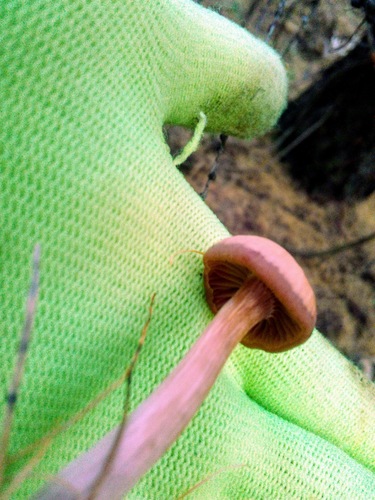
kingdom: Fungi
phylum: Basidiomycota
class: Agaricomycetes
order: Agaricales
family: Hydnangiaceae
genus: Laccaria
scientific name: Laccaria
